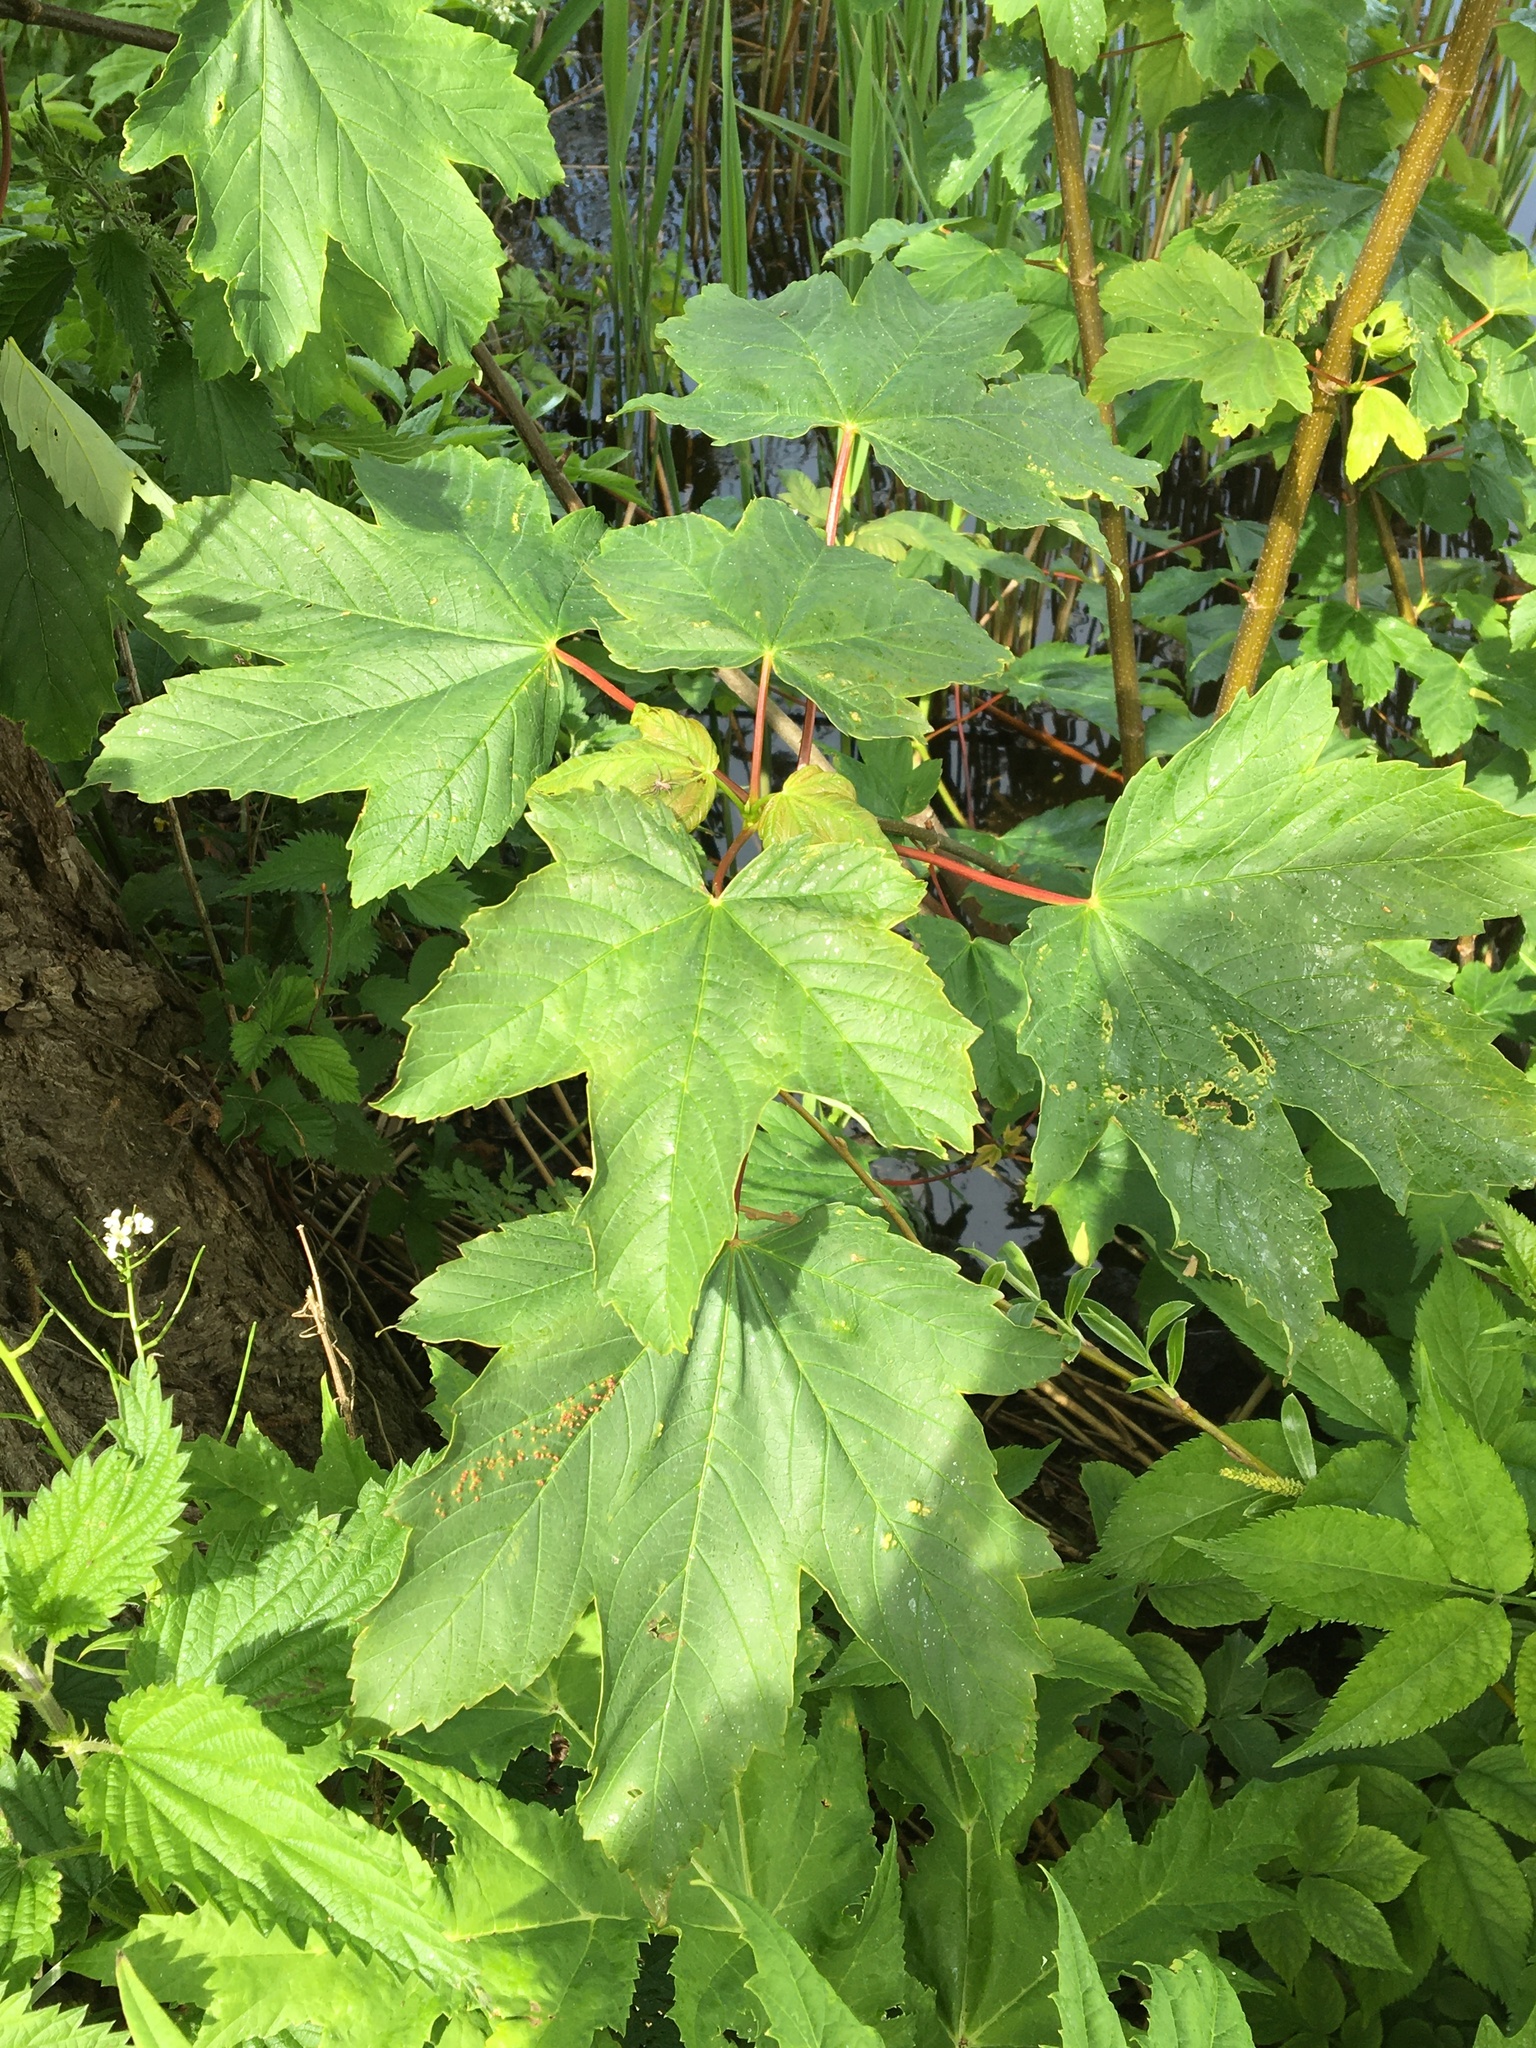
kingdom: Plantae
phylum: Tracheophyta
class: Magnoliopsida
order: Sapindales
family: Sapindaceae
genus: Acer
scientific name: Acer pseudoplatanus
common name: Sycamore
